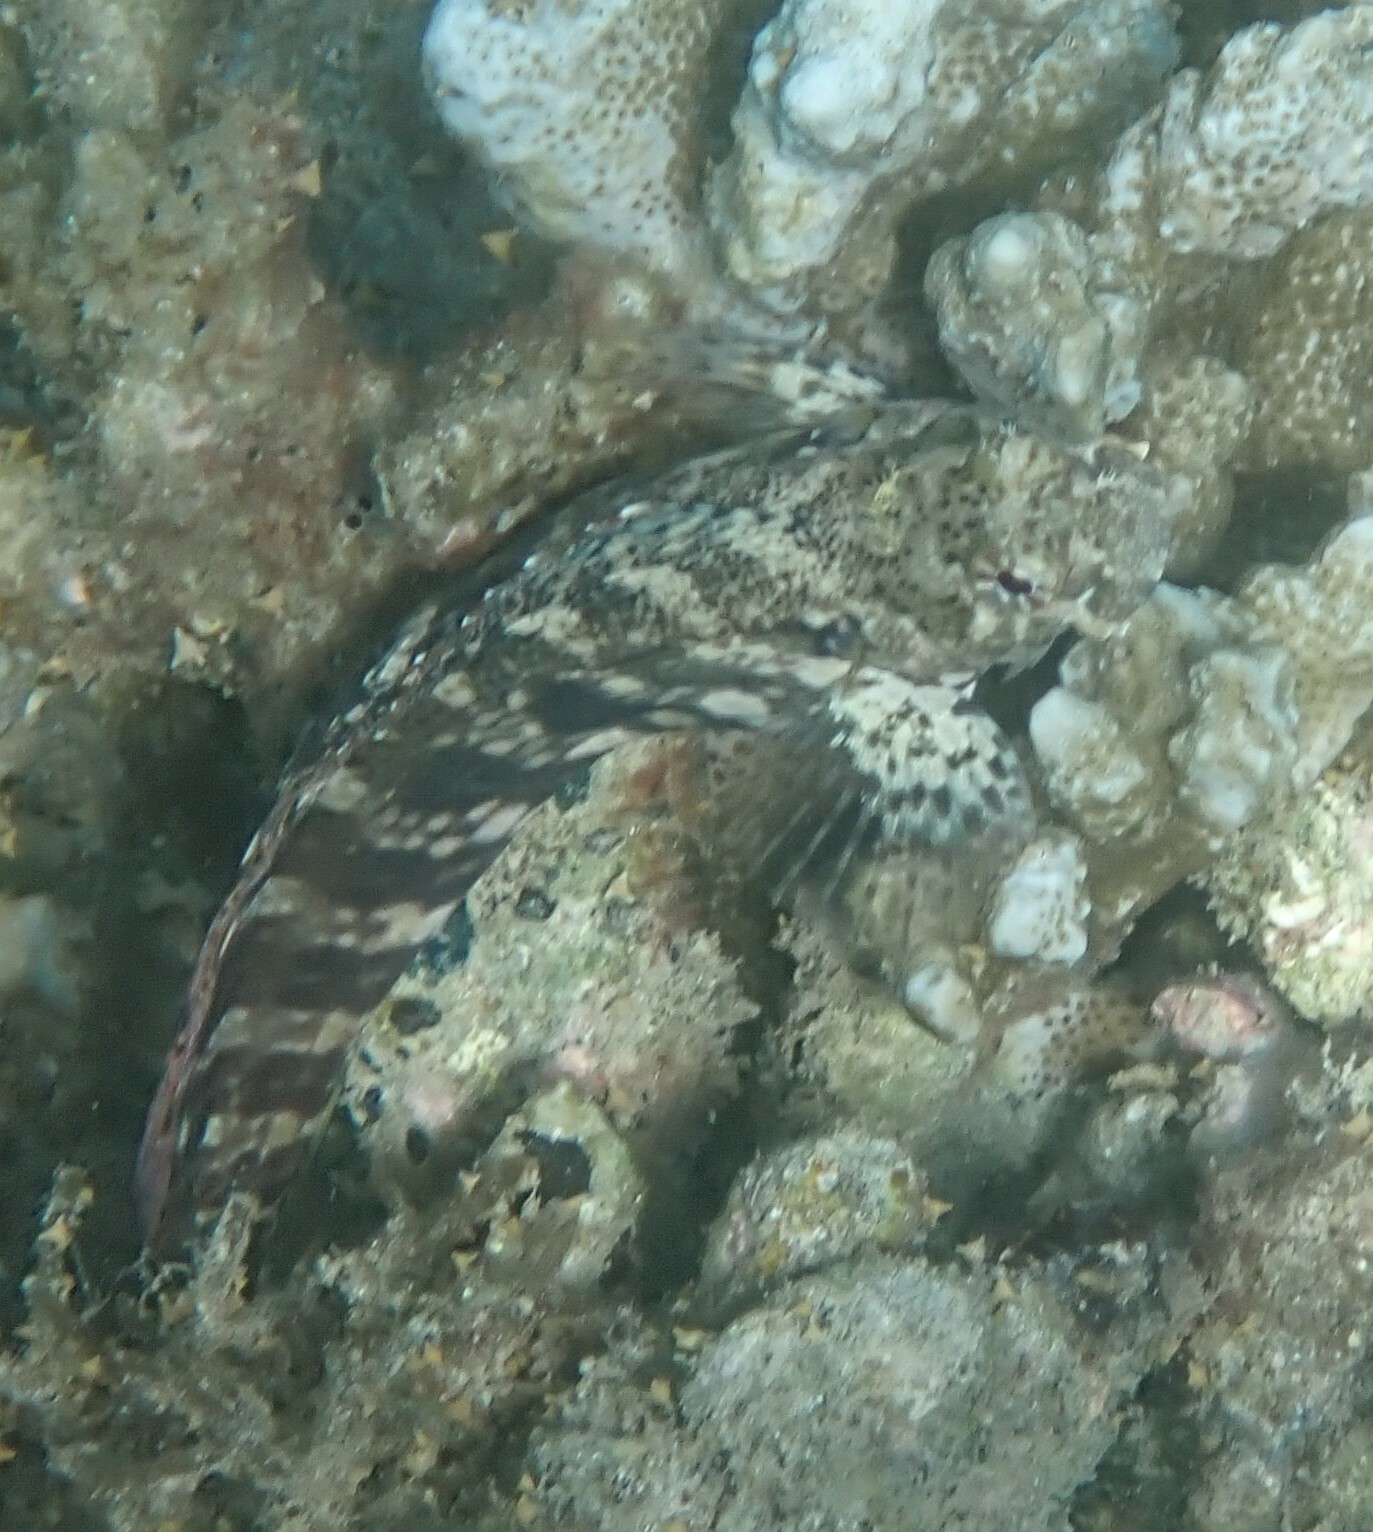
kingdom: Animalia
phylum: Chordata
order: Perciformes
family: Blenniidae
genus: Salarias
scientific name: Salarias fasciatus
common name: Jewelled blenny
